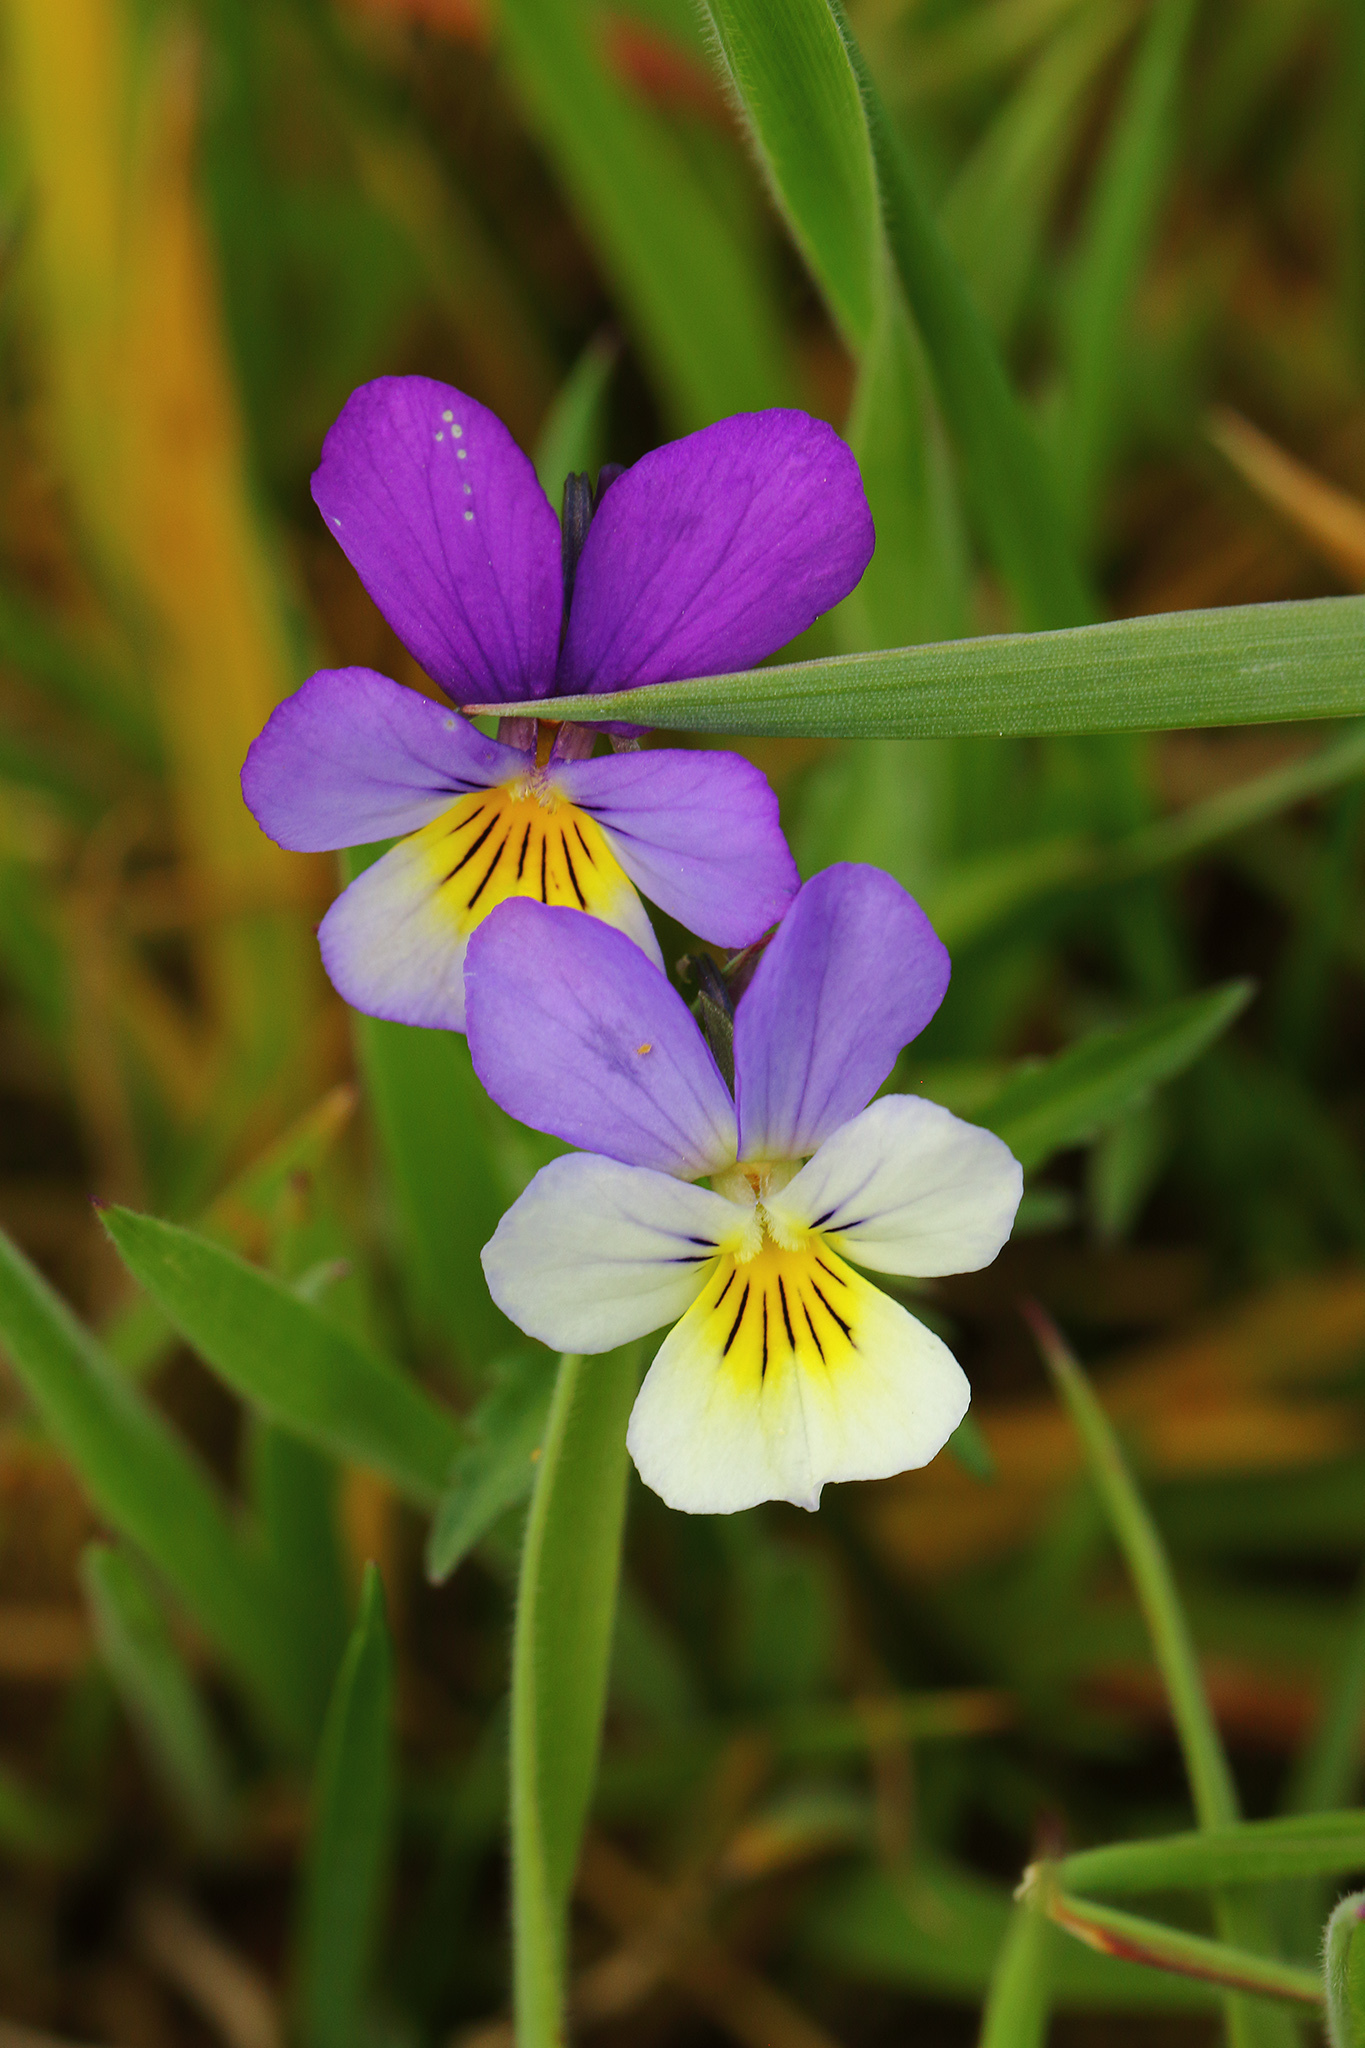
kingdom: Plantae
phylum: Tracheophyta
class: Magnoliopsida
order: Malpighiales
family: Violaceae
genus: Viola
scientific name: Viola tricolor
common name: Pansy
